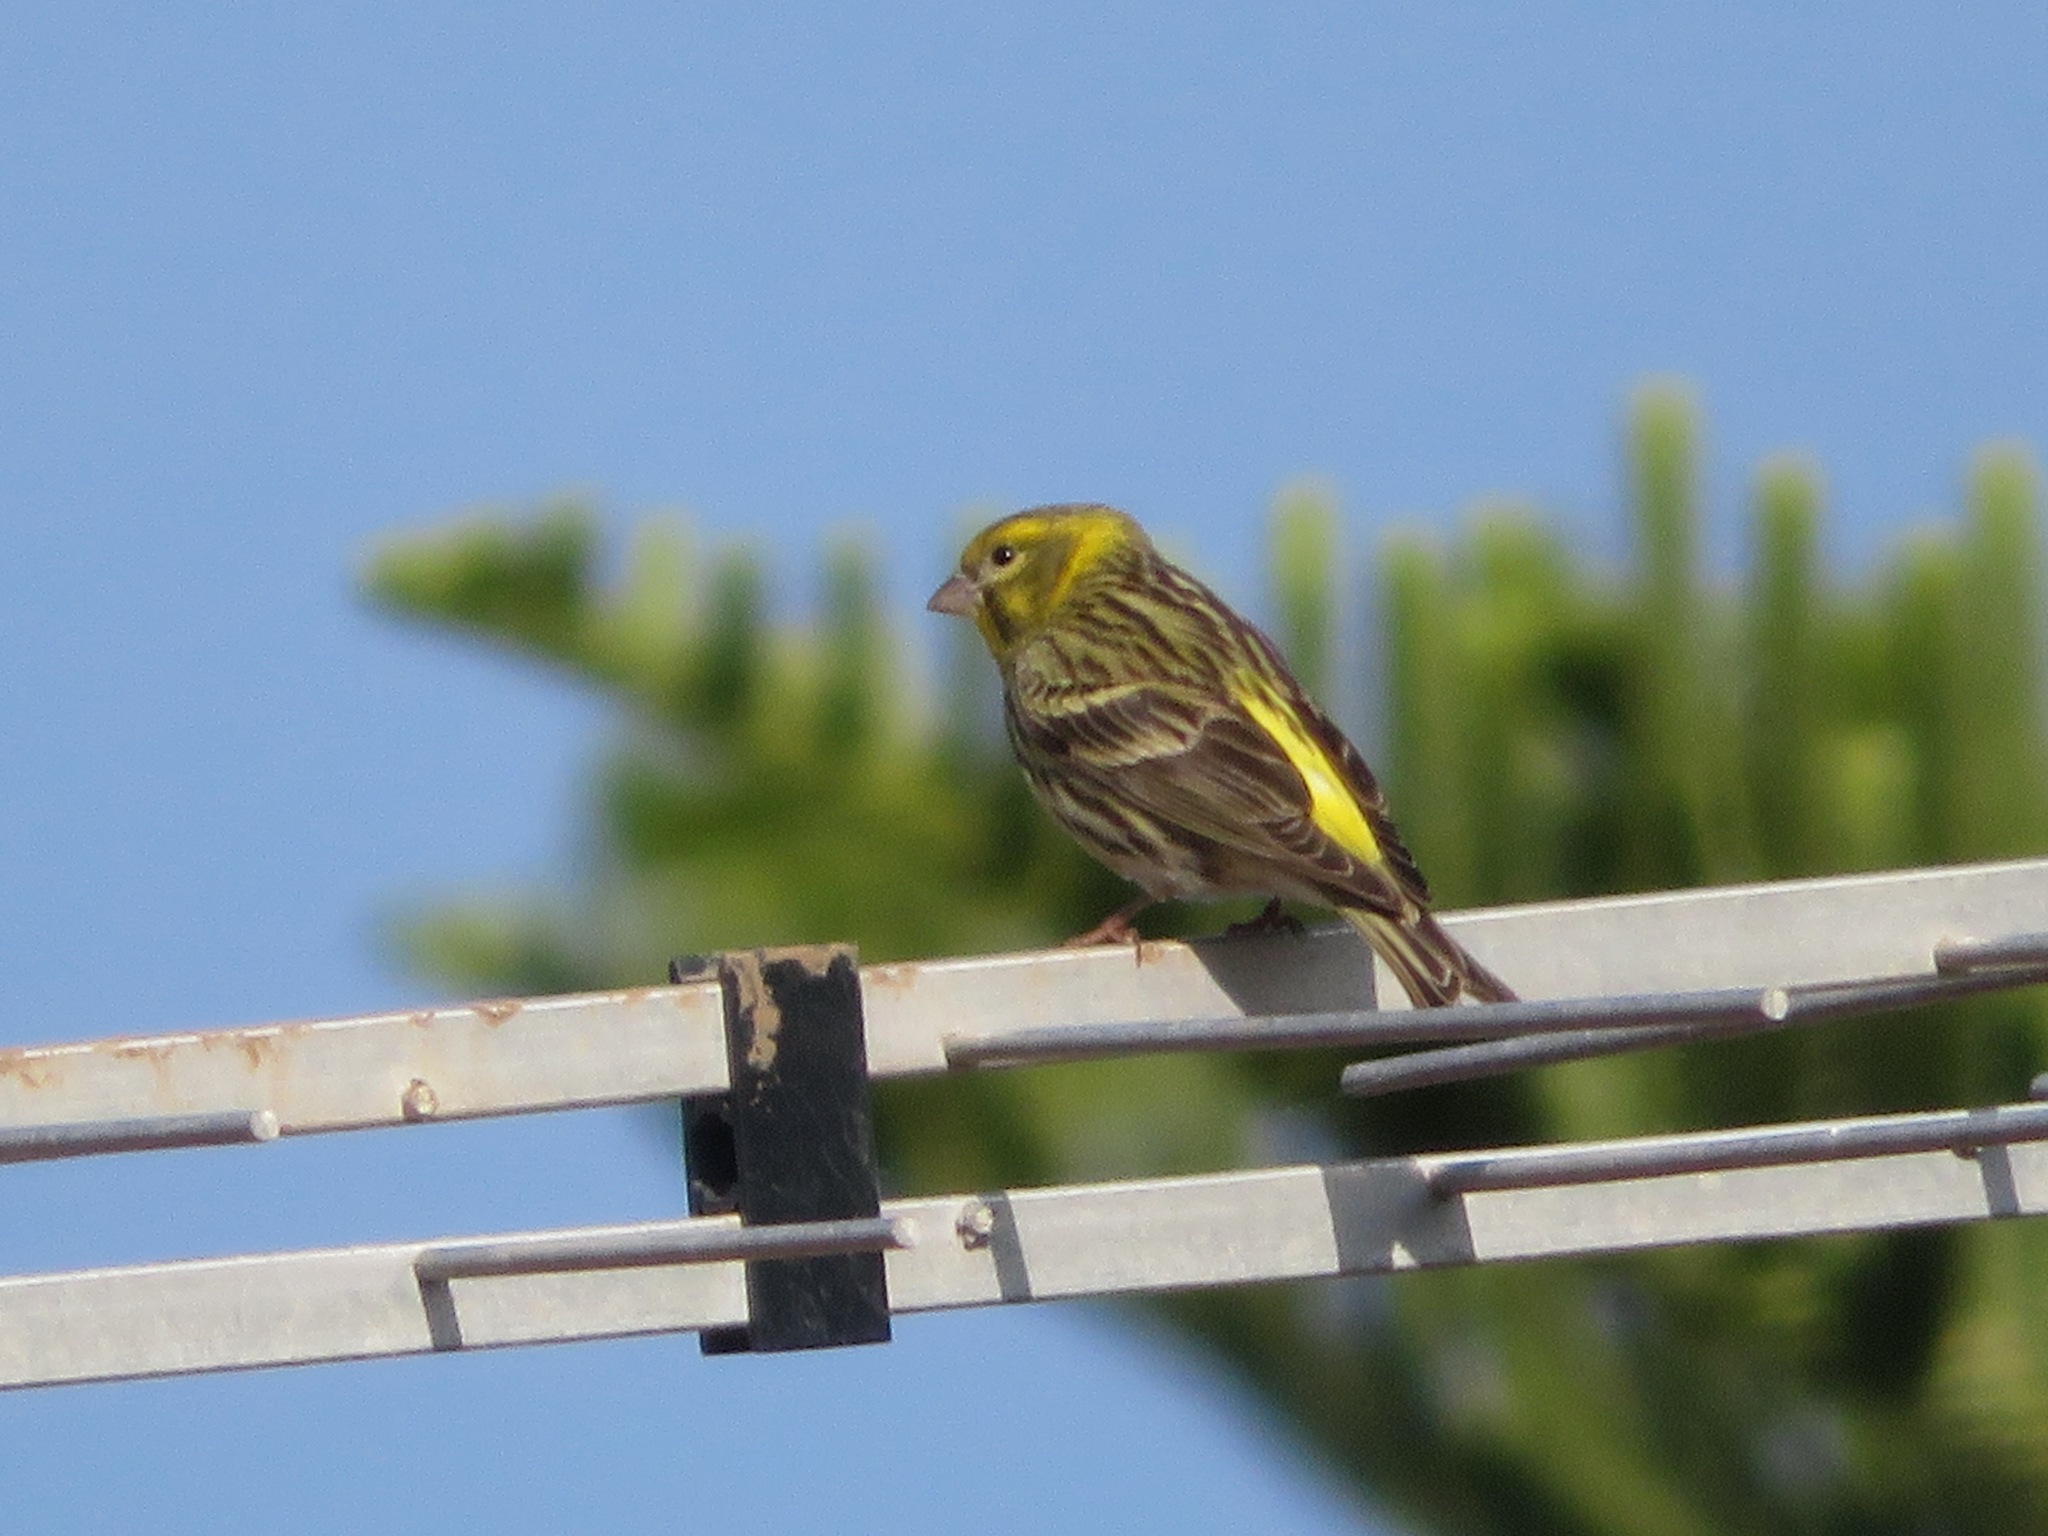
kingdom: Animalia
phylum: Chordata
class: Aves
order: Passeriformes
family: Fringillidae
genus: Serinus
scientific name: Serinus serinus
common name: European serin
